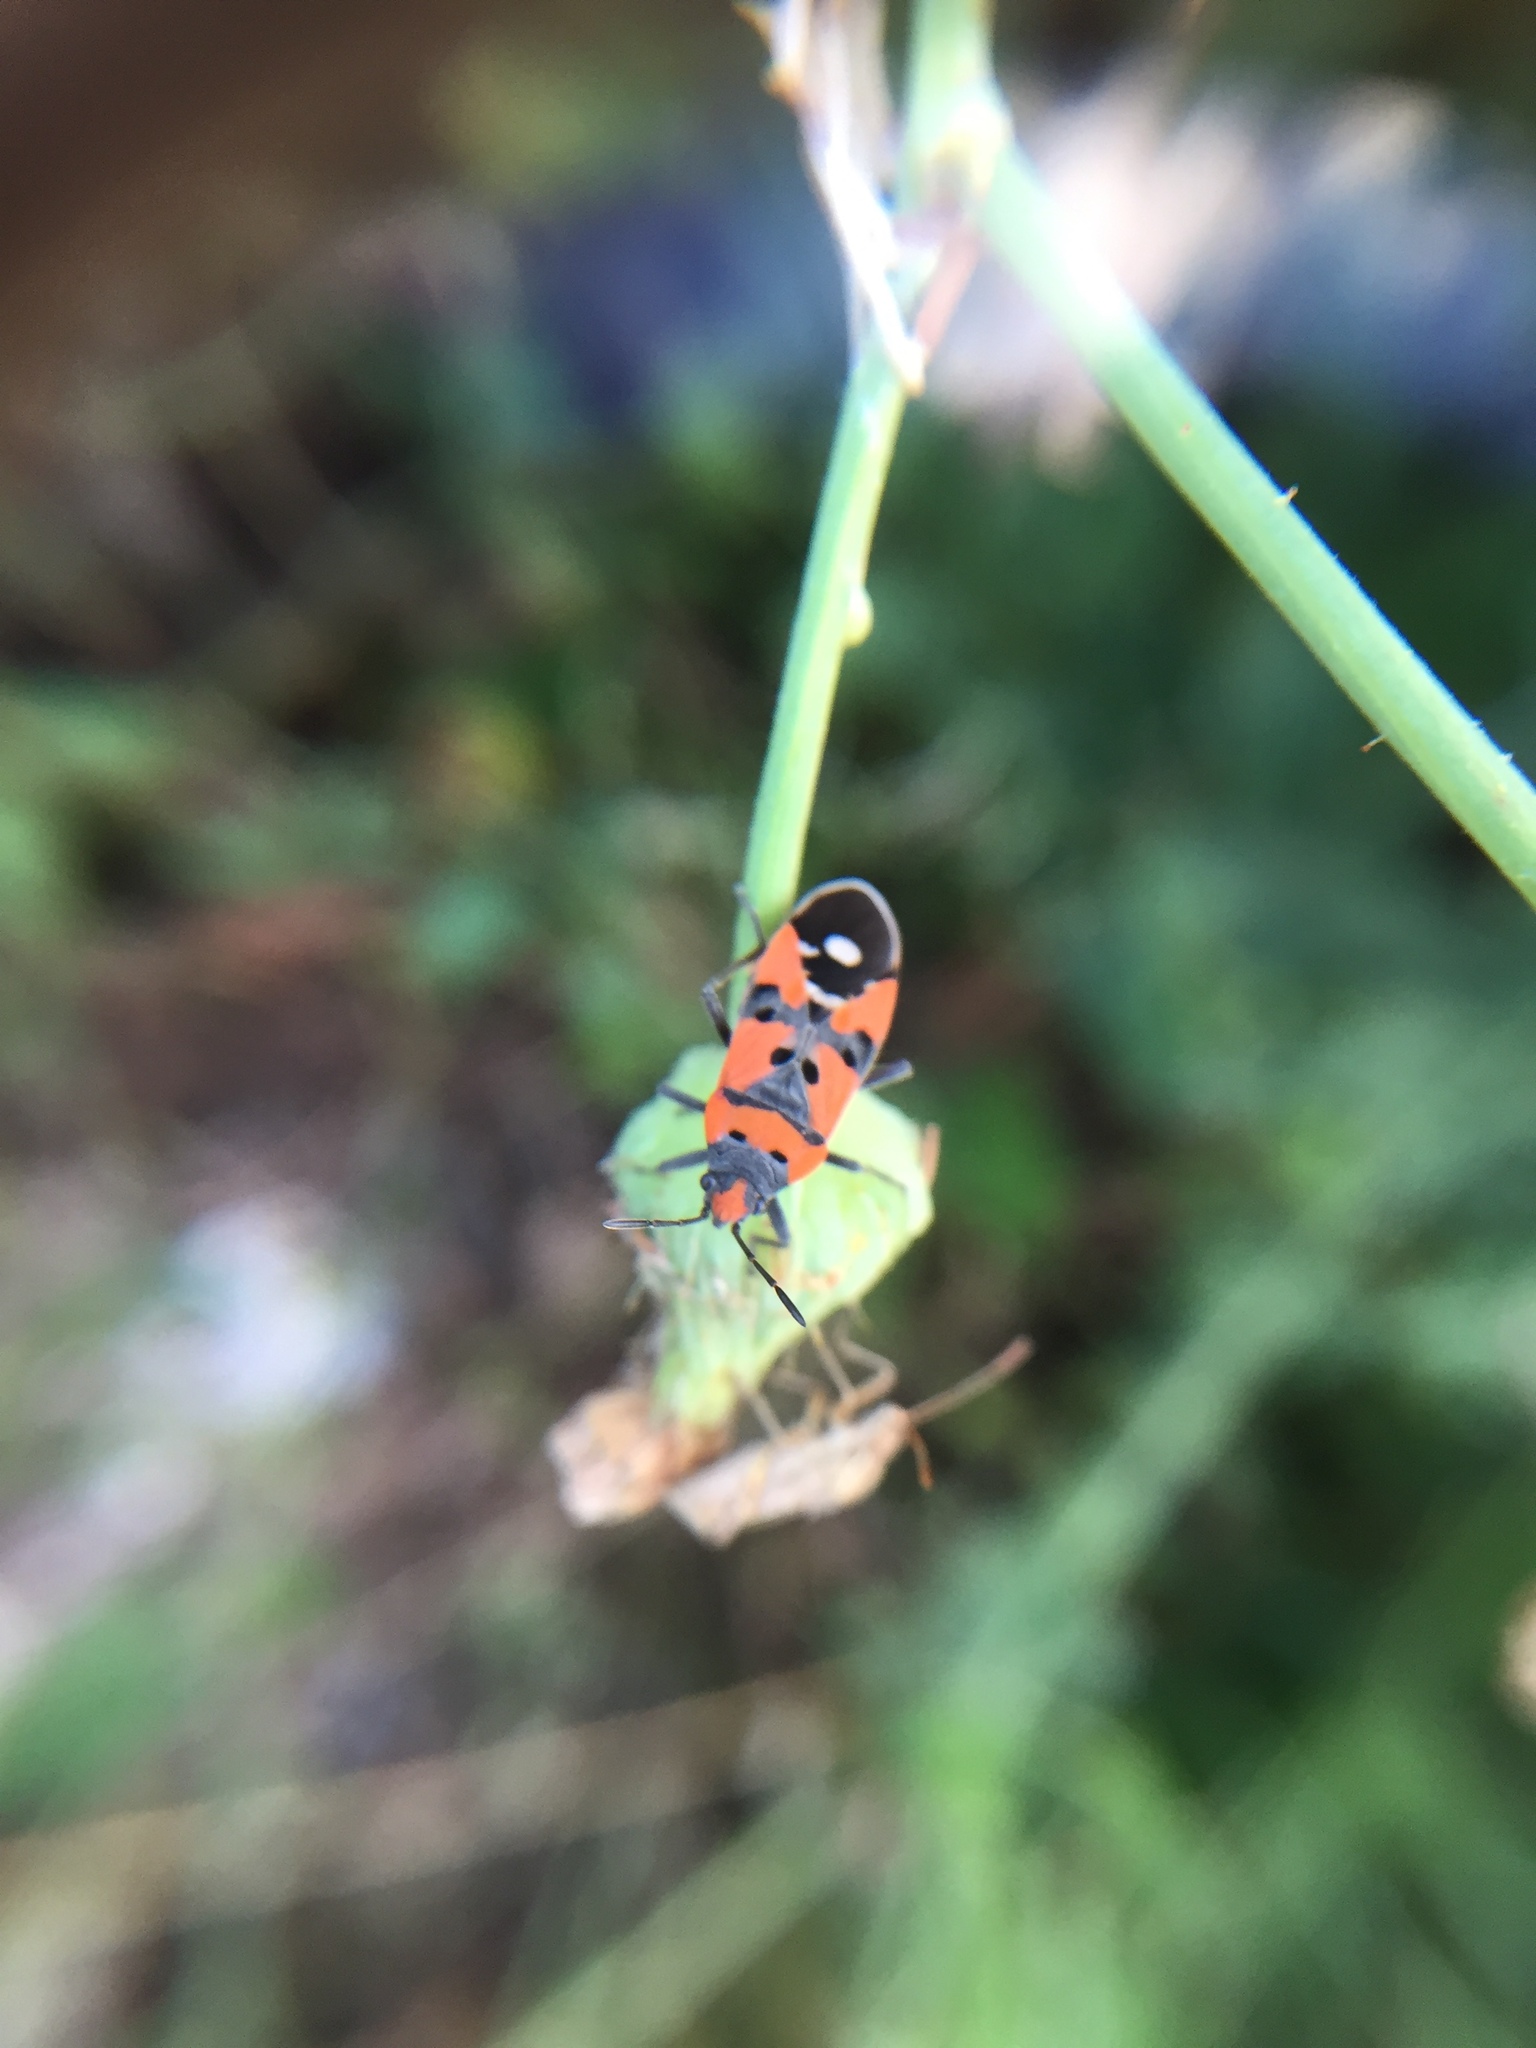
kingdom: Animalia
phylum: Arthropoda
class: Insecta
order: Hemiptera
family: Lygaeidae
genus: Lygaeus
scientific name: Lygaeus equestris
